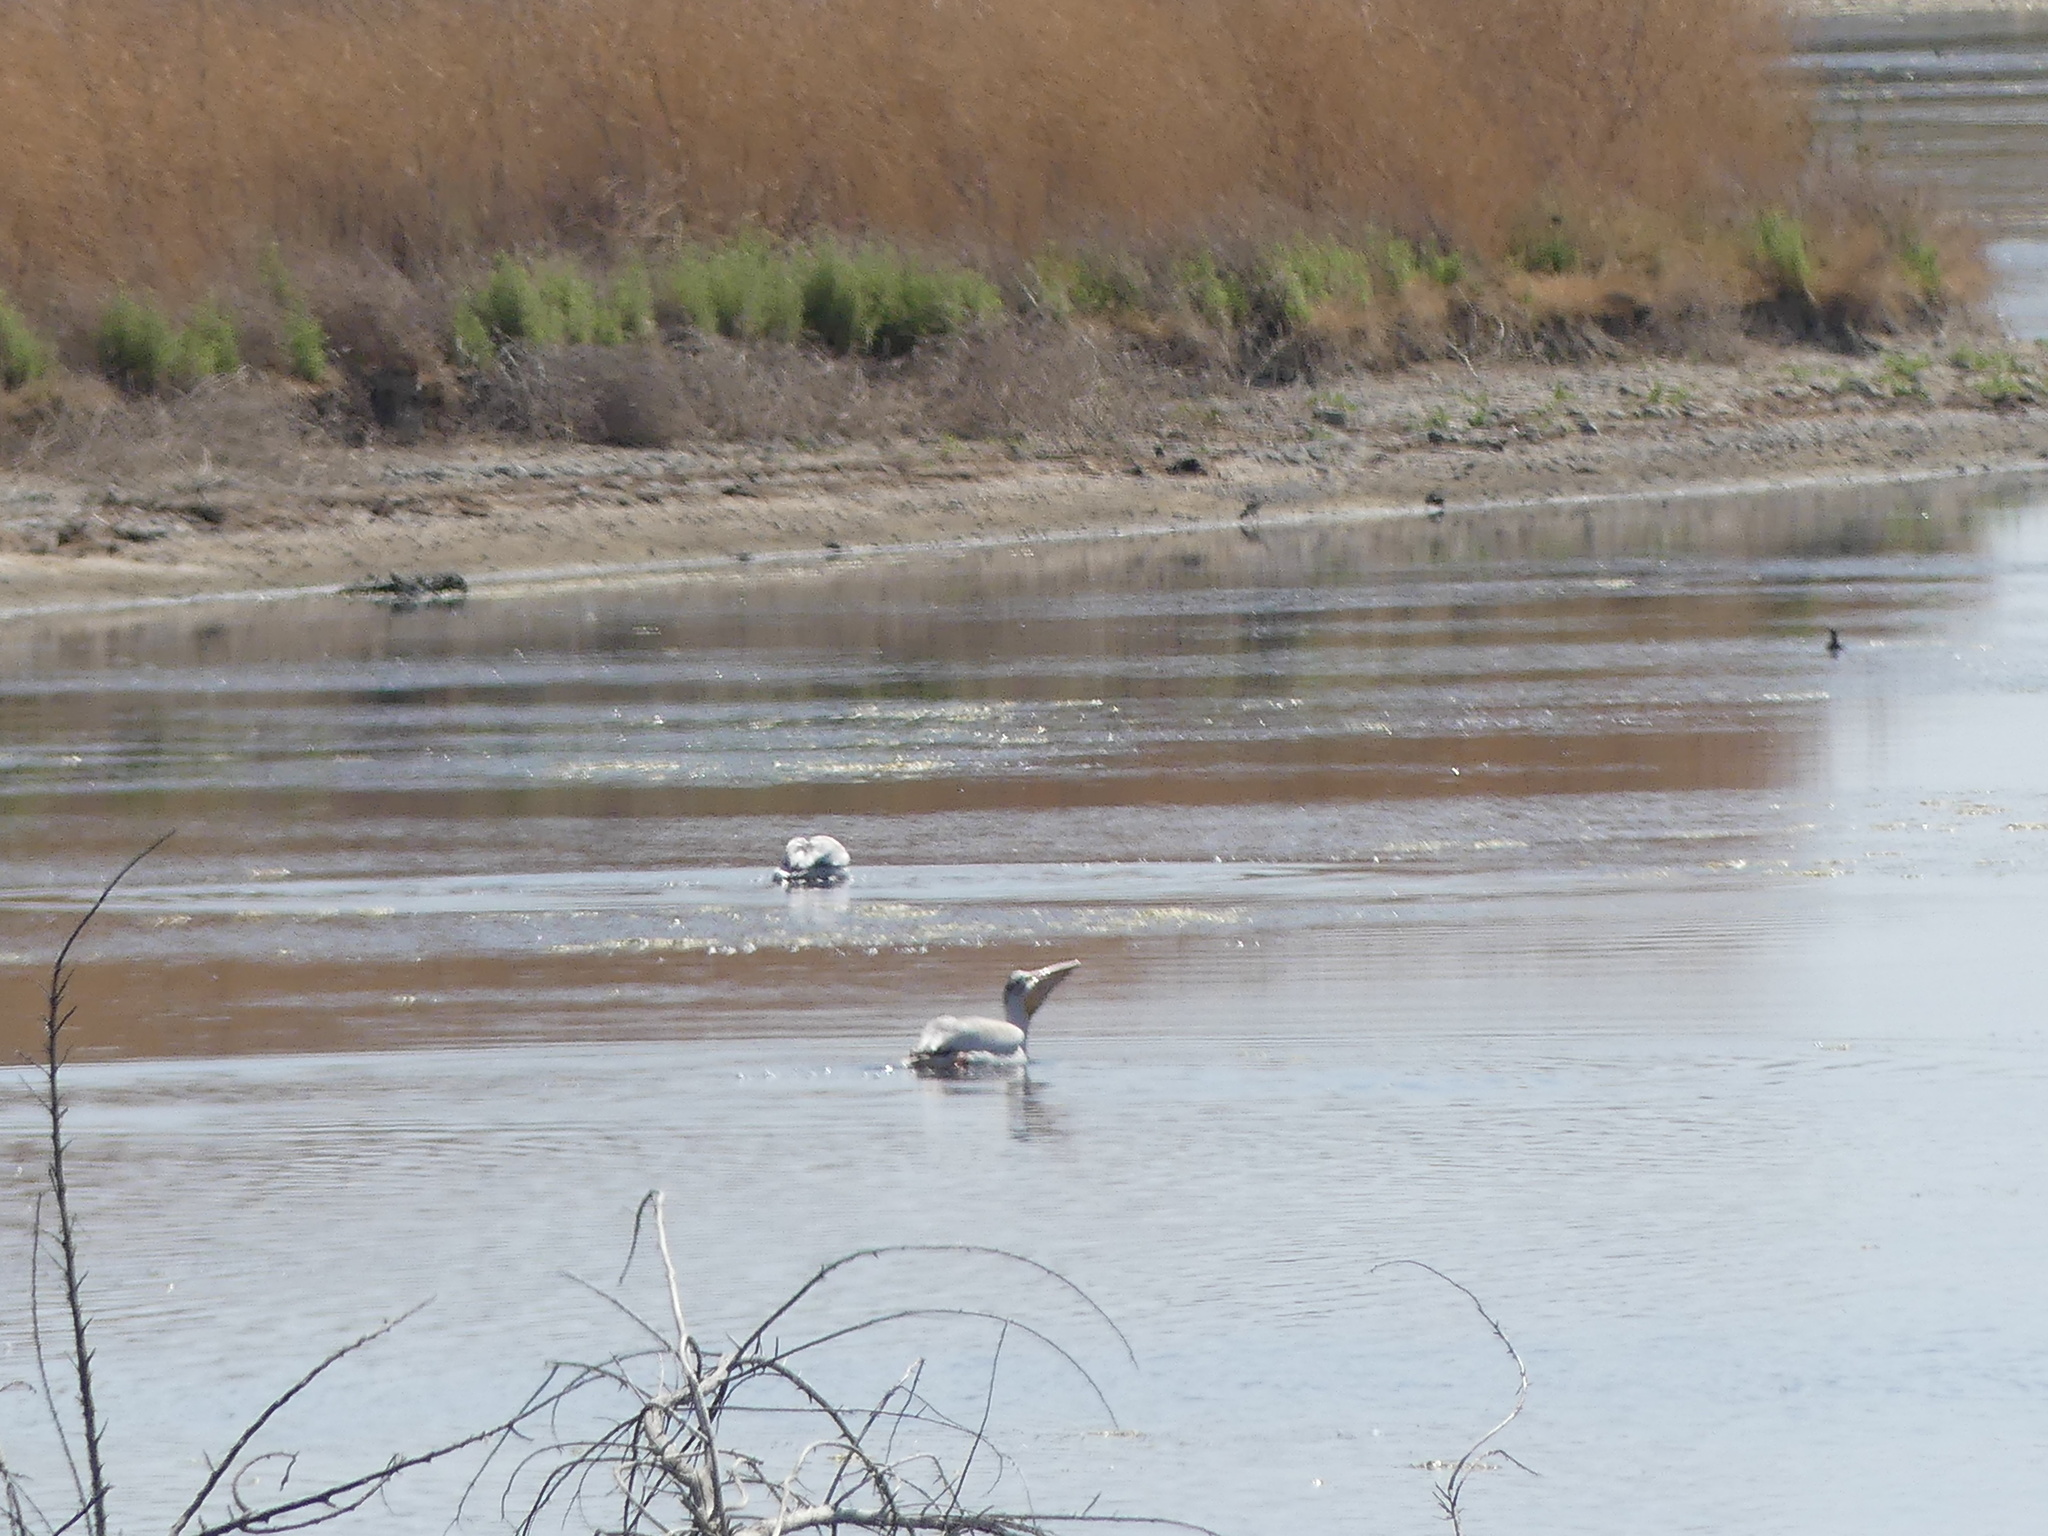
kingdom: Animalia
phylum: Chordata
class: Aves
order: Pelecaniformes
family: Pelecanidae
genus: Pelecanus
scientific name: Pelecanus erythrorhynchos
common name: American white pelican
